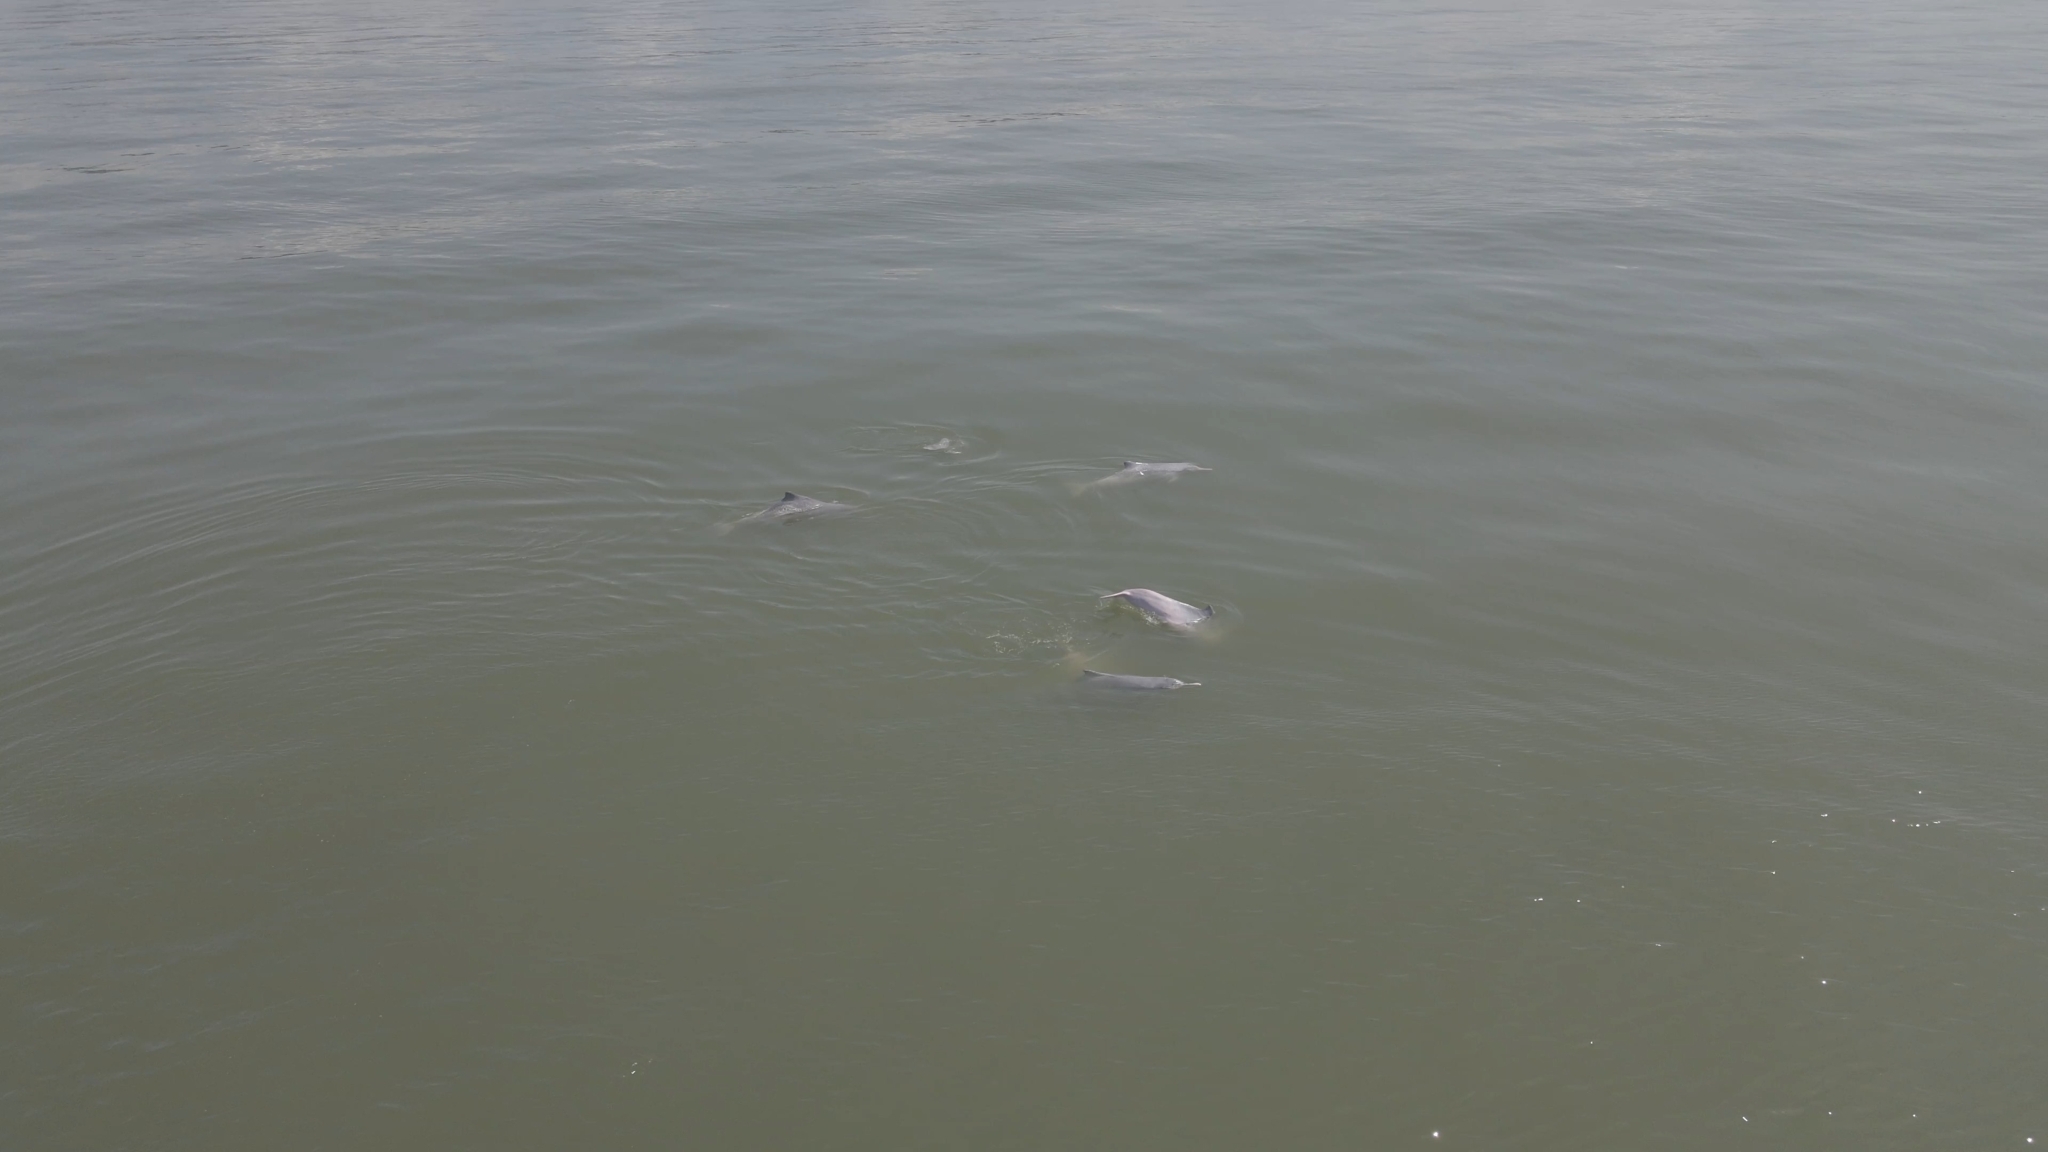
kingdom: Animalia
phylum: Chordata
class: Mammalia
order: Cetacea
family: Delphinidae
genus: Sousa
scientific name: Sousa chinensis
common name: Chinese white dolphin
